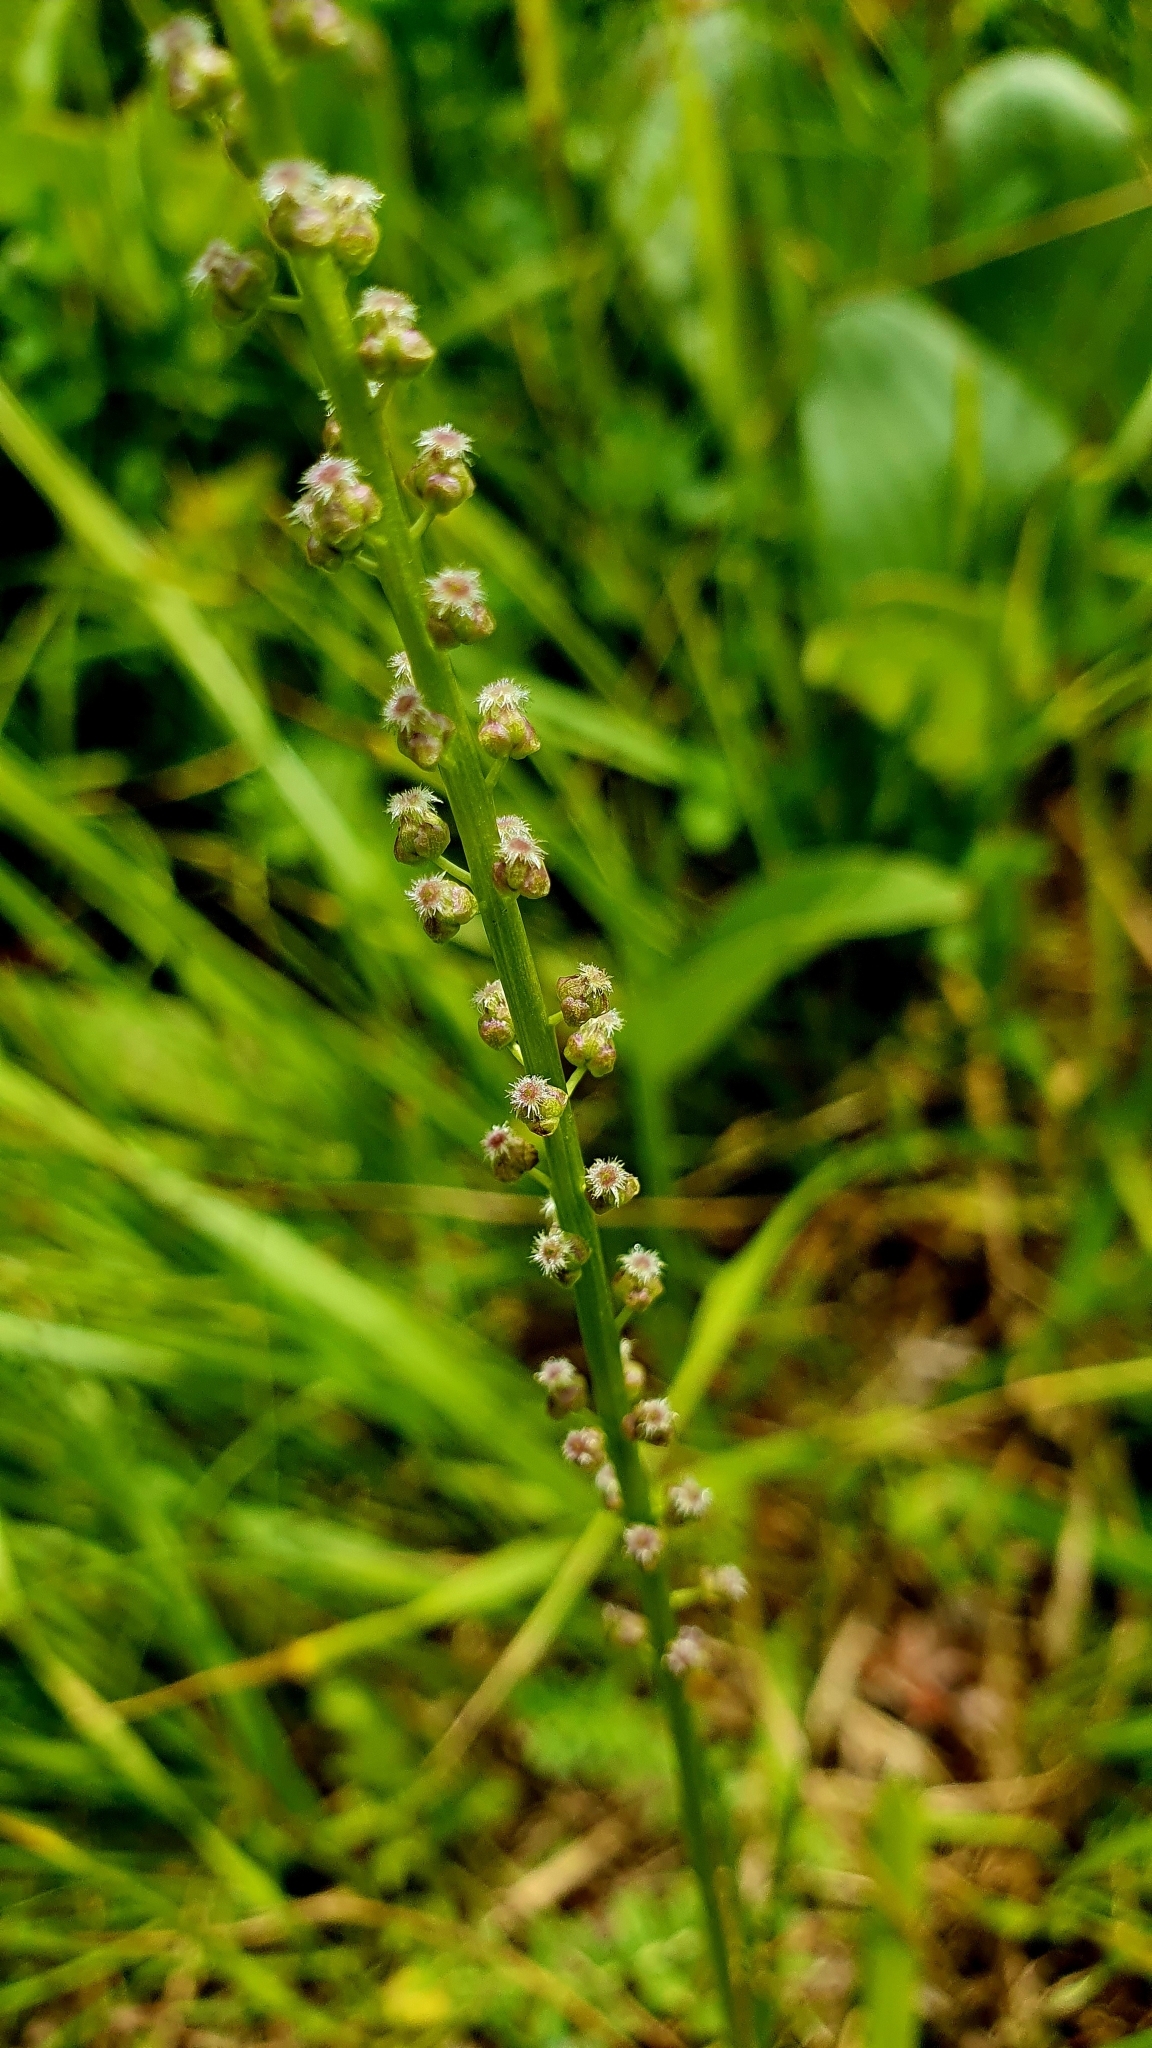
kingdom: Plantae
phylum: Tracheophyta
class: Liliopsida
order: Alismatales
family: Juncaginaceae
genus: Triglochin
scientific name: Triglochin maritima
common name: Sea arrowgrass
